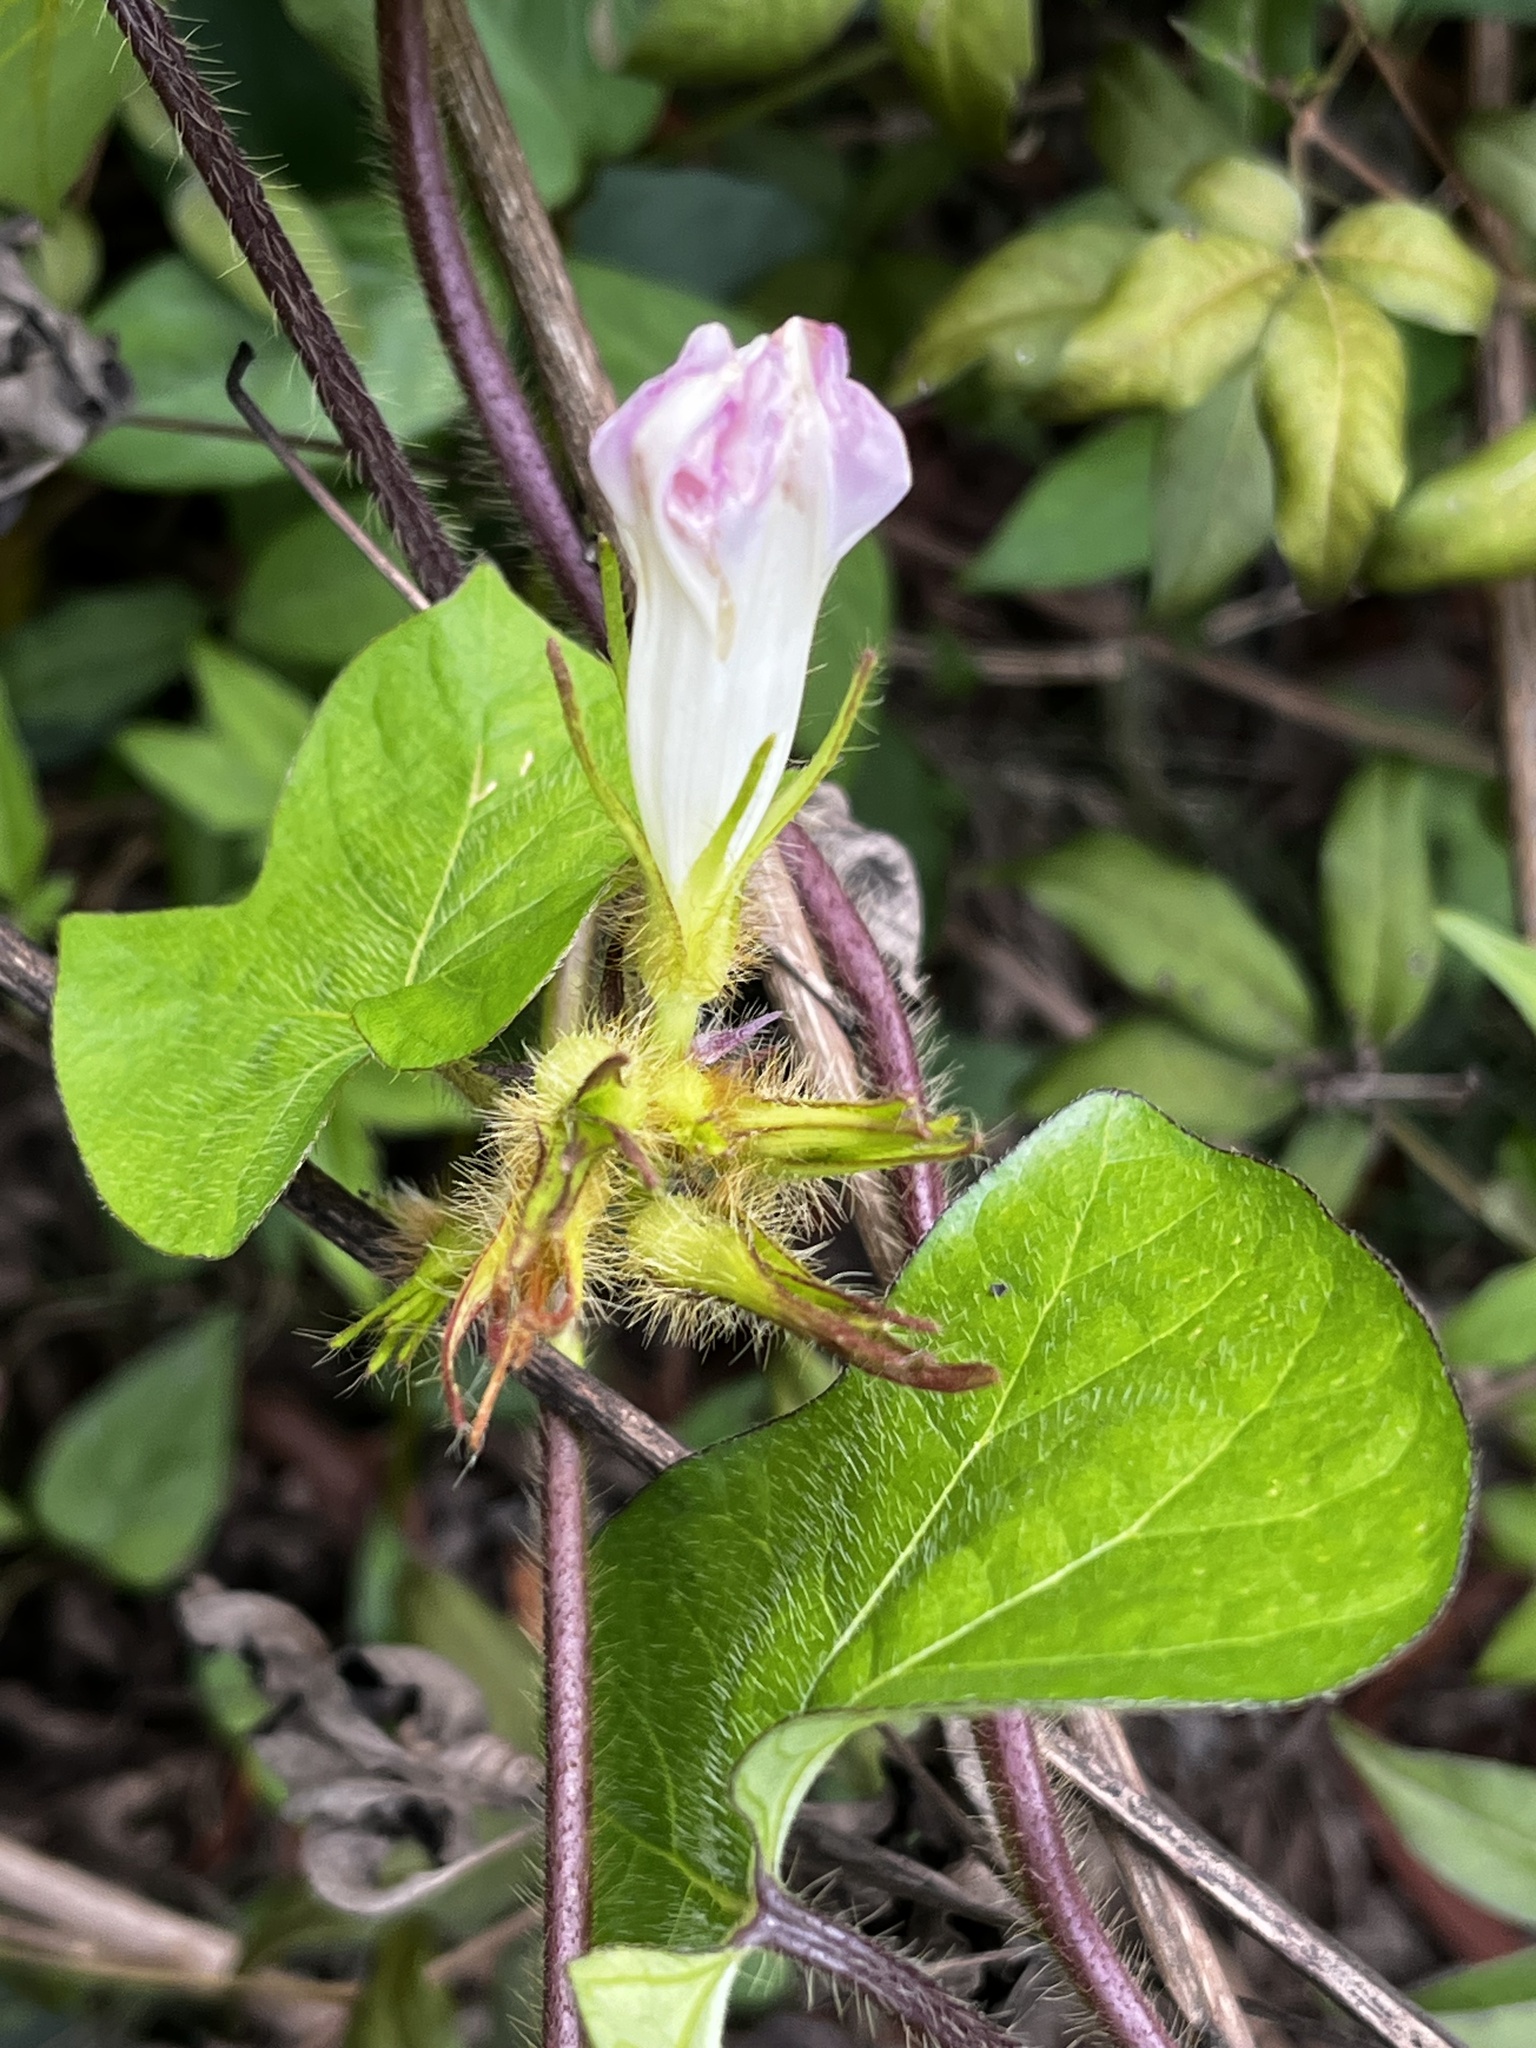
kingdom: Plantae
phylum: Tracheophyta
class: Magnoliopsida
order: Solanales
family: Convolvulaceae
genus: Ipomoea
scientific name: Ipomoea nil
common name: Japanese morning-glory
